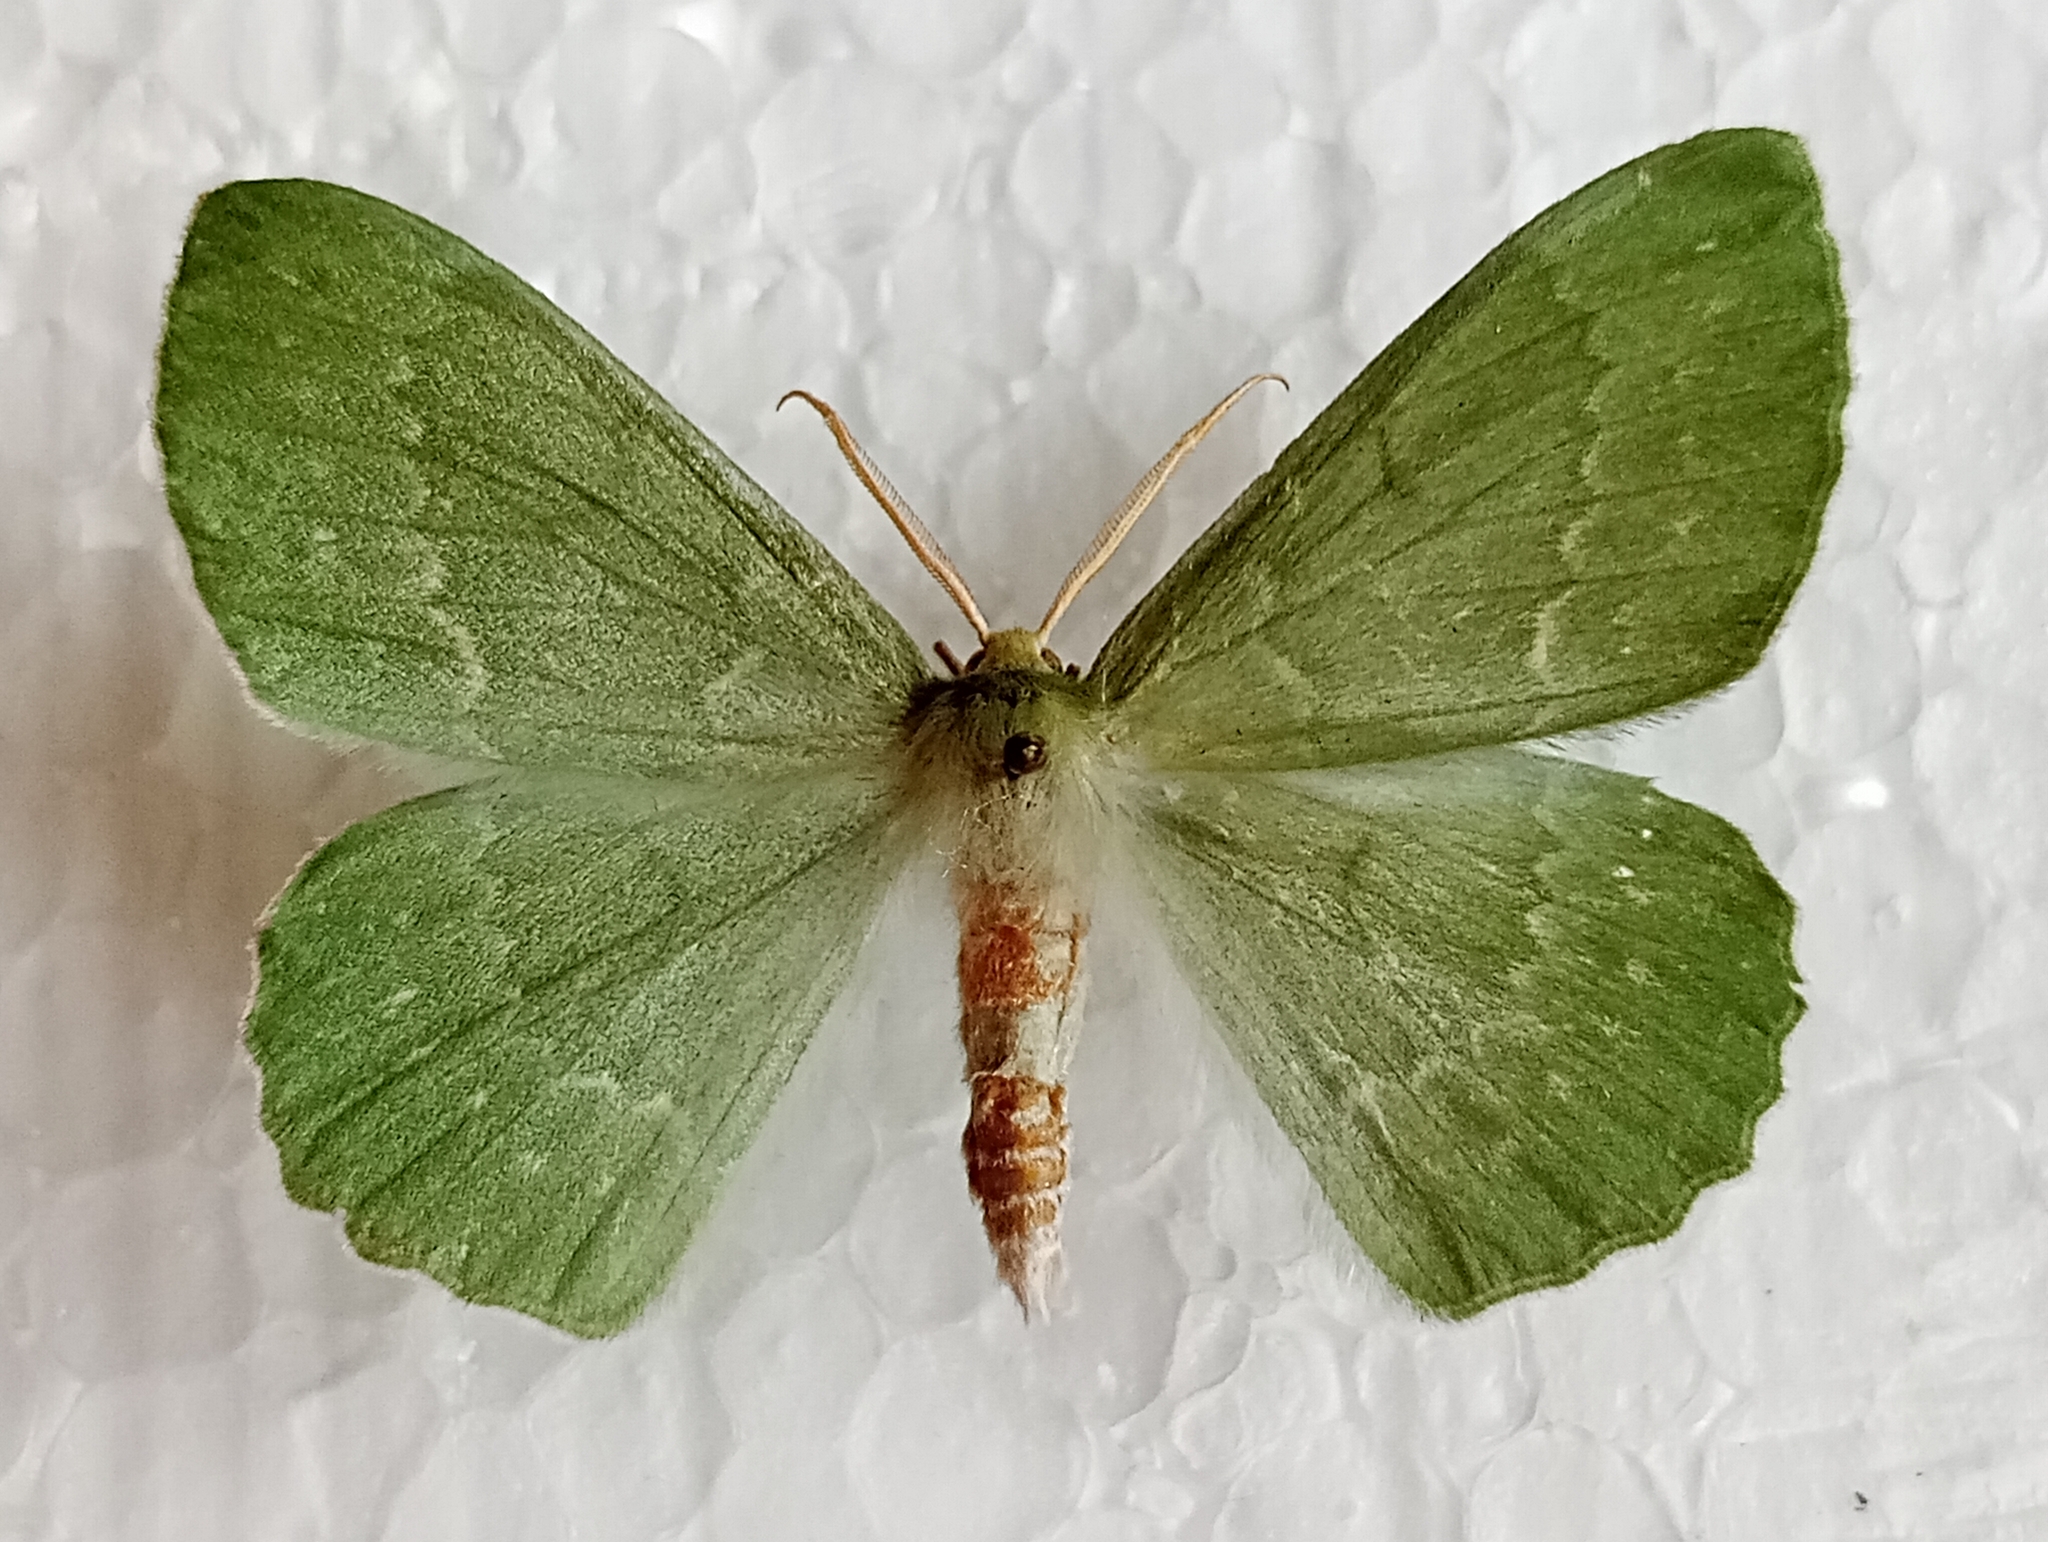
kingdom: Animalia
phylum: Arthropoda
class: Insecta
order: Lepidoptera
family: Geometridae
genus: Geometra
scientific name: Geometra papilionaria
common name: Large emerald
